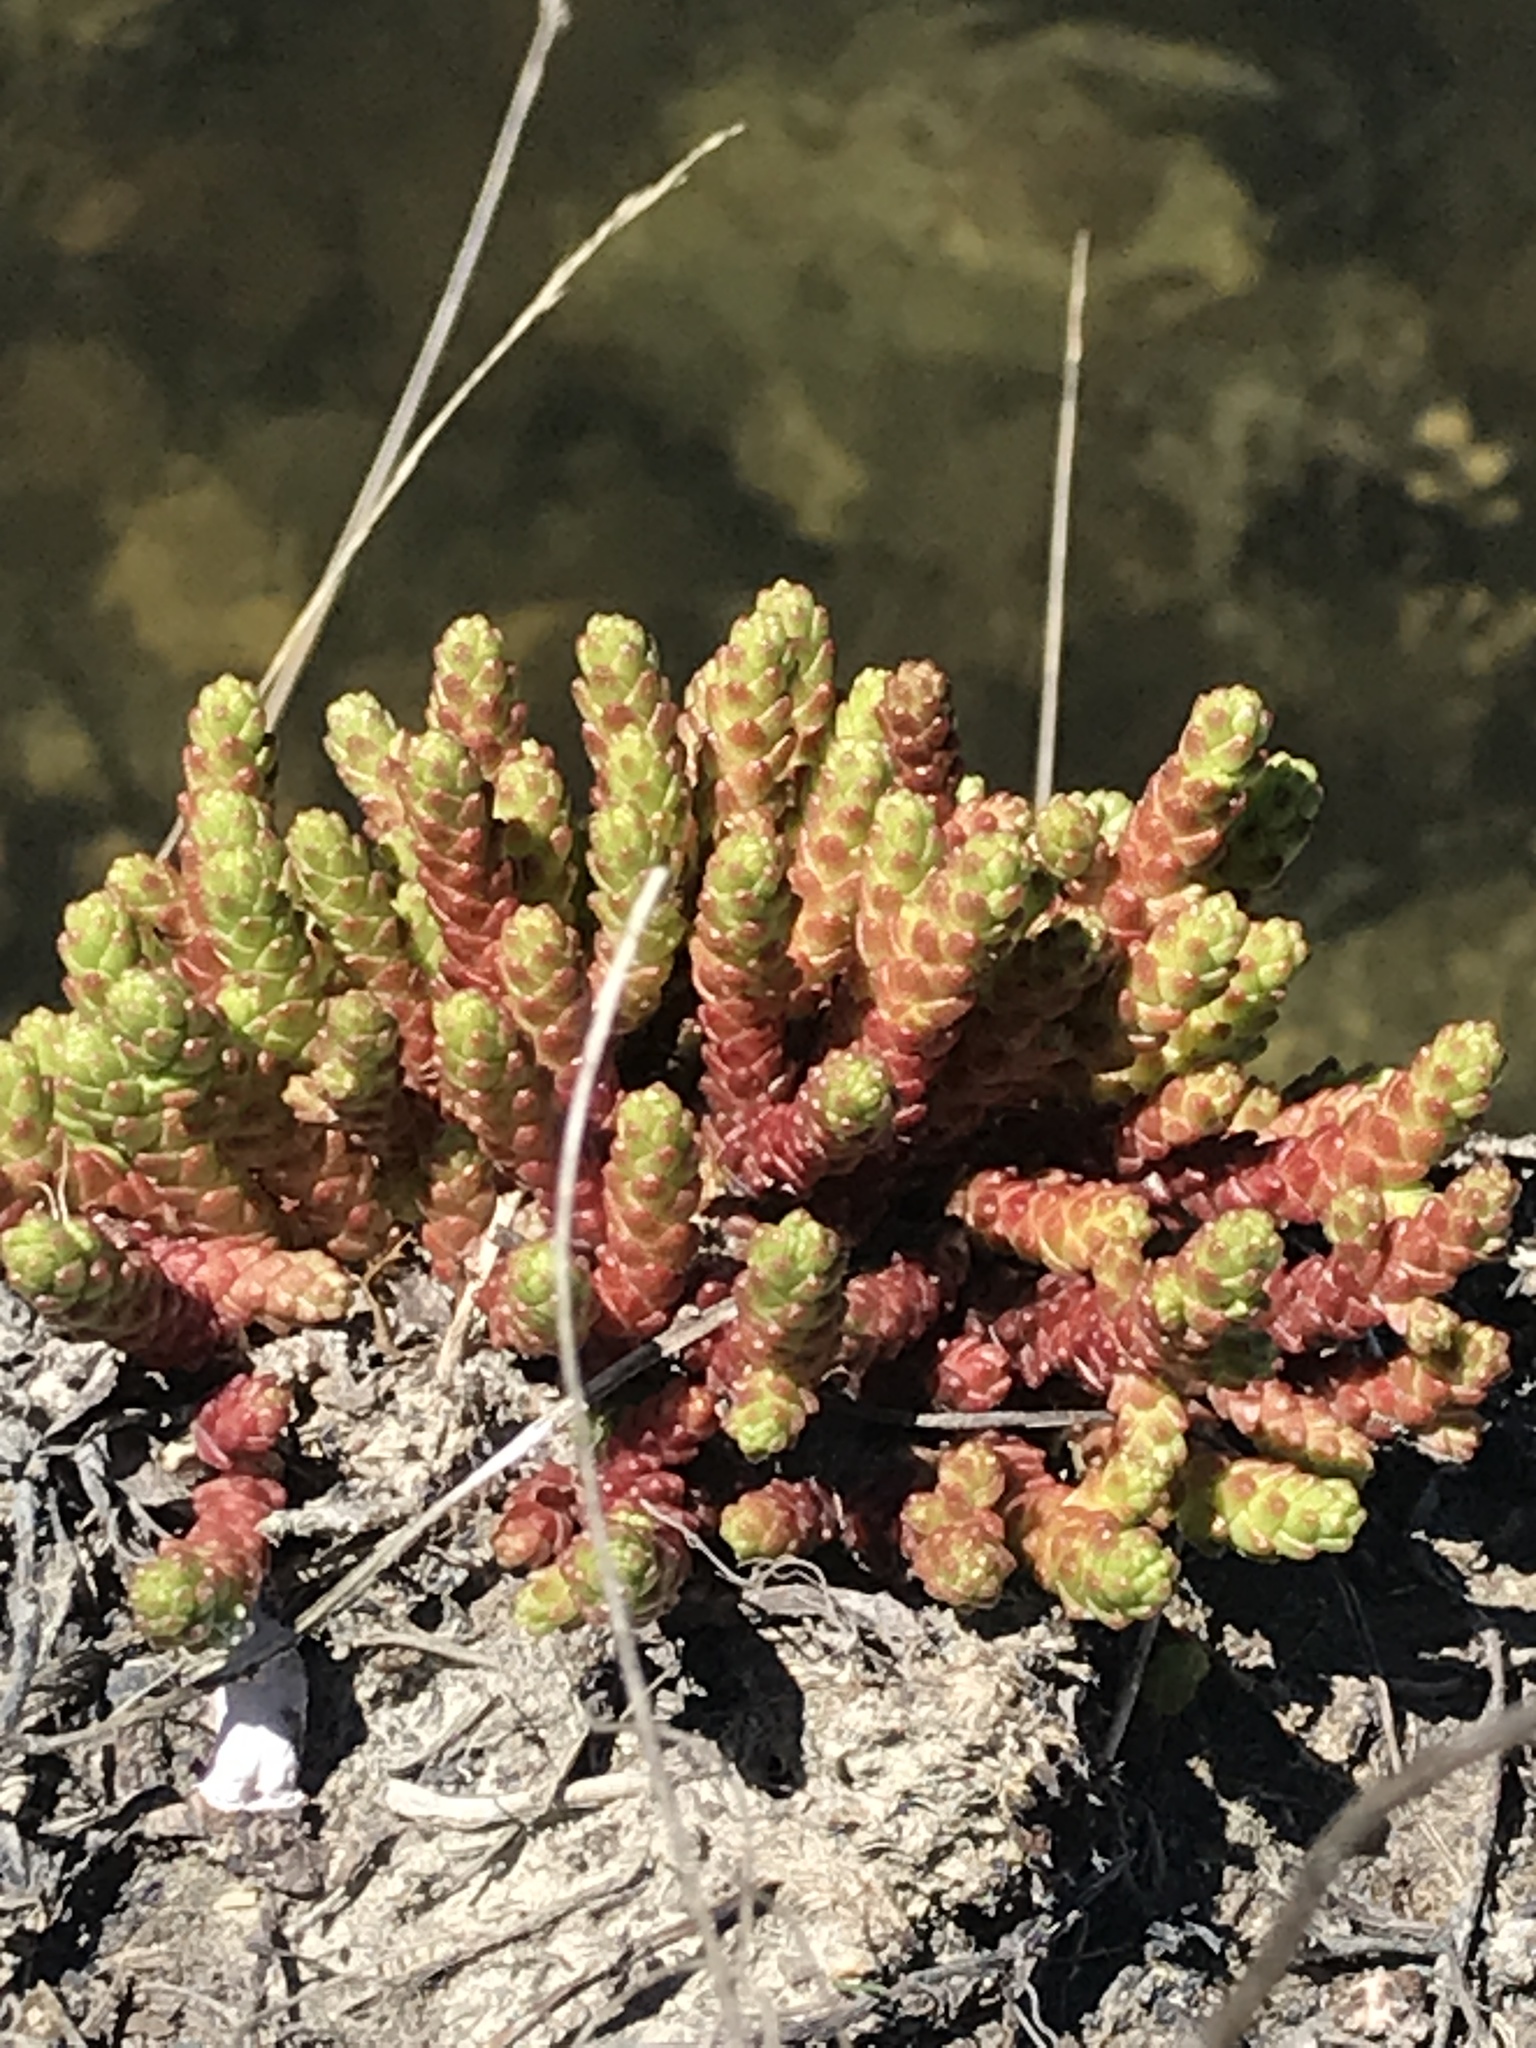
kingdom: Plantae
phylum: Tracheophyta
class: Magnoliopsida
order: Saxifragales
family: Crassulaceae
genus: Sedum
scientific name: Sedum acre
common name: Biting stonecrop
